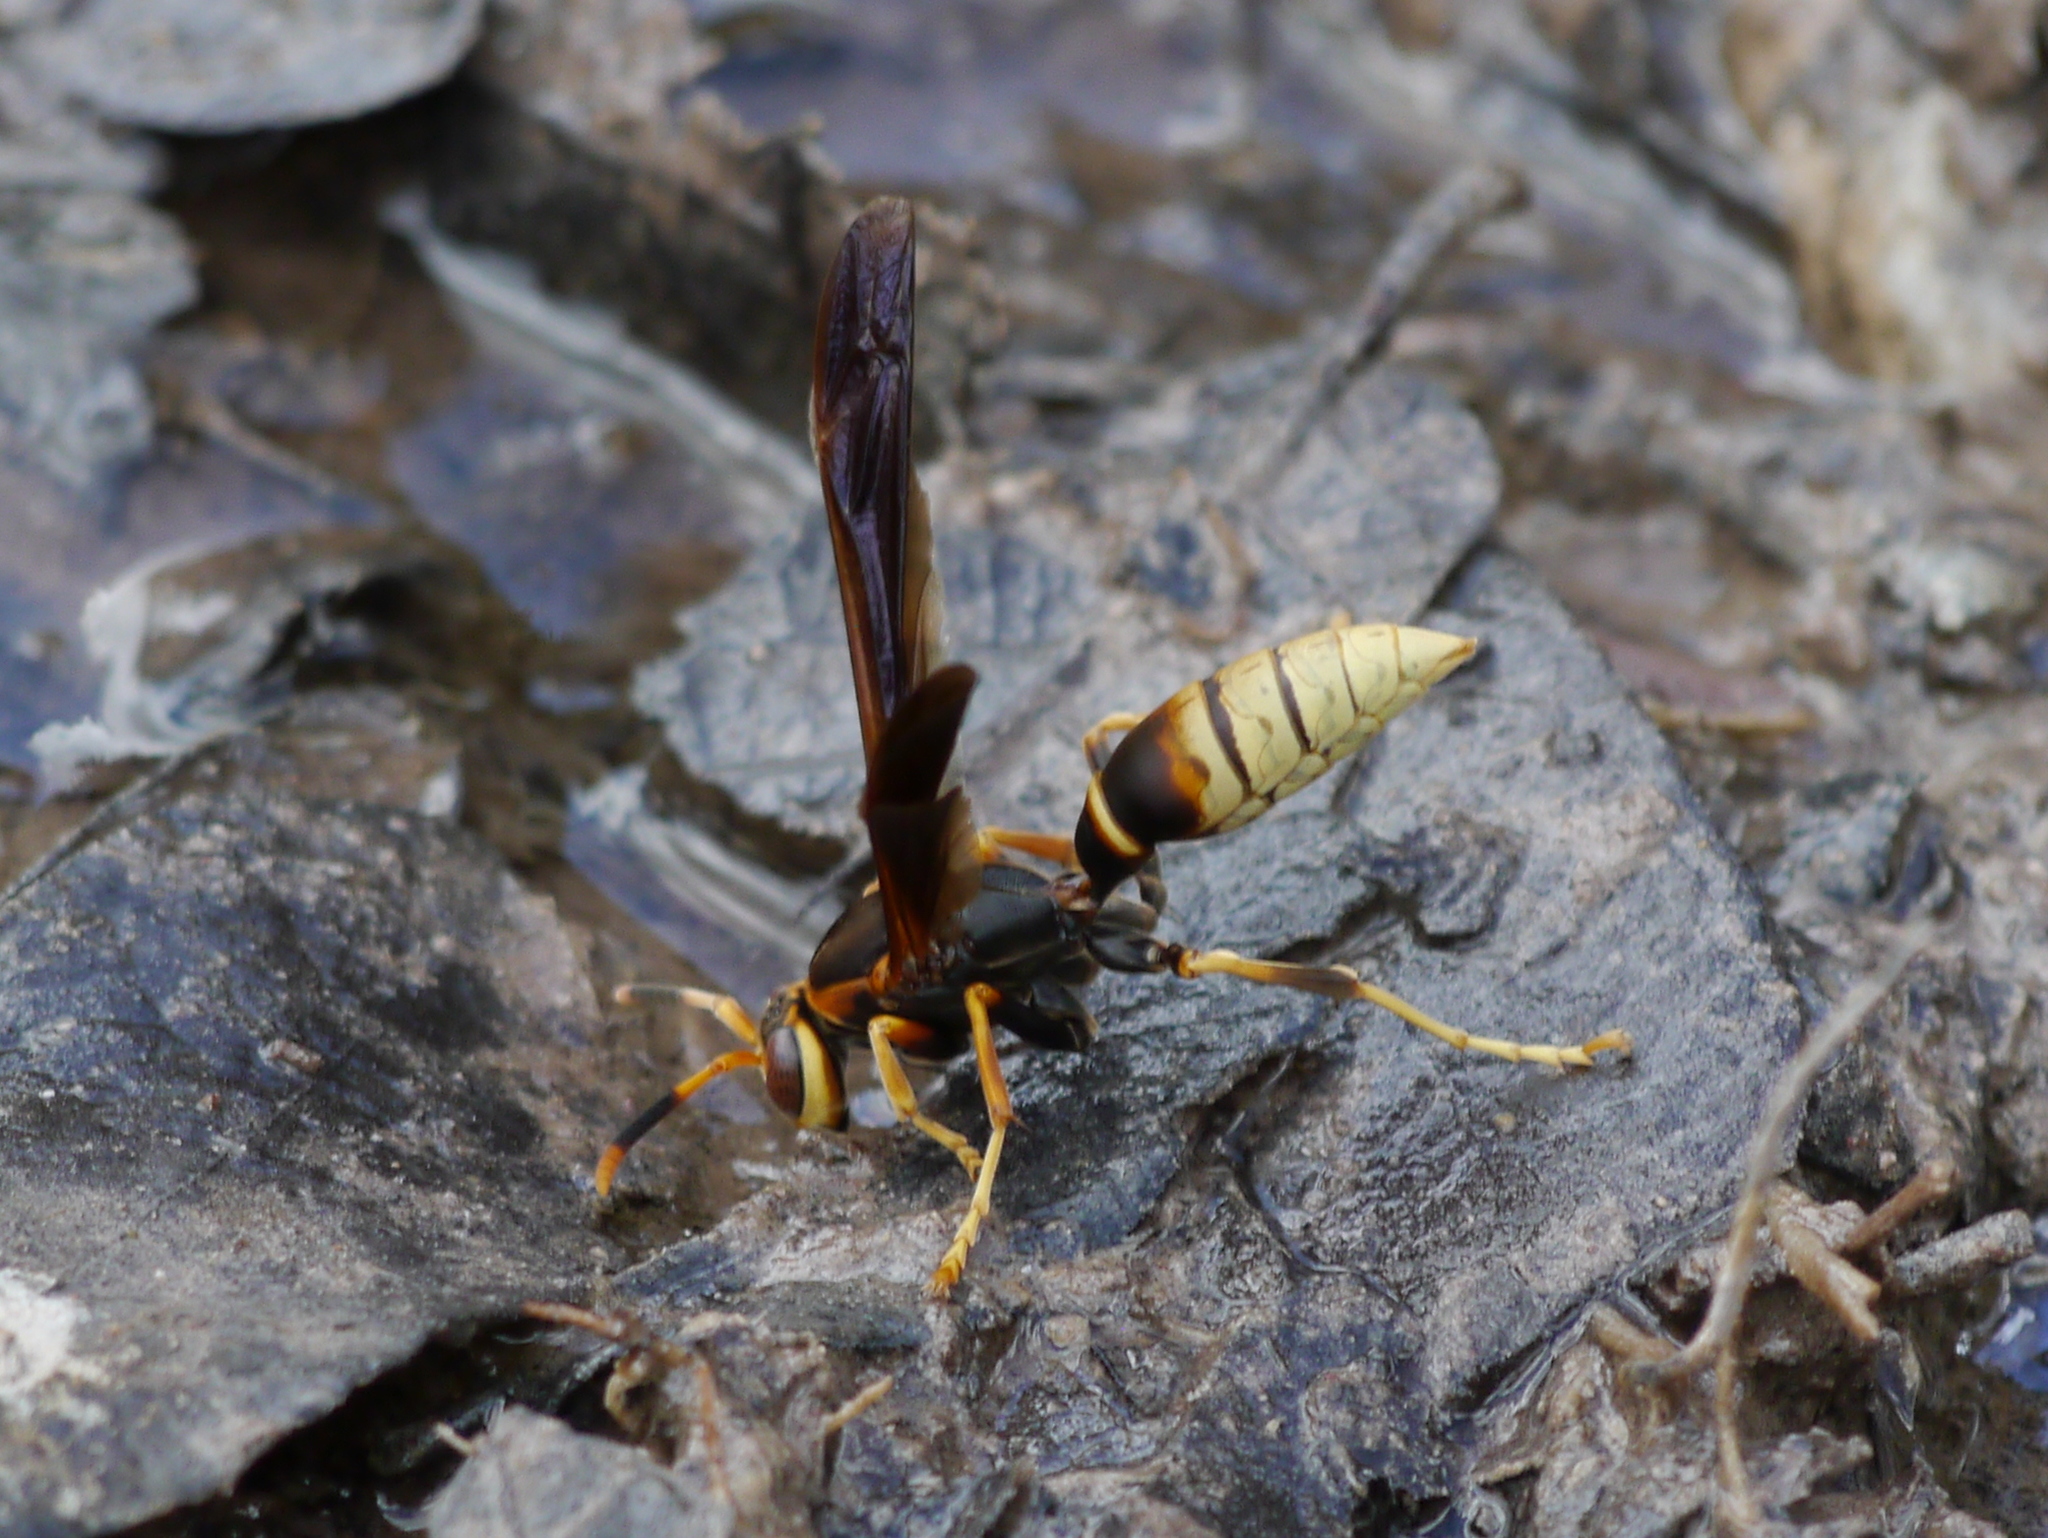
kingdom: Animalia
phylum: Arthropoda
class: Insecta
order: Hymenoptera
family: Eumenidae
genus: Polistes
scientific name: Polistes comanchus
